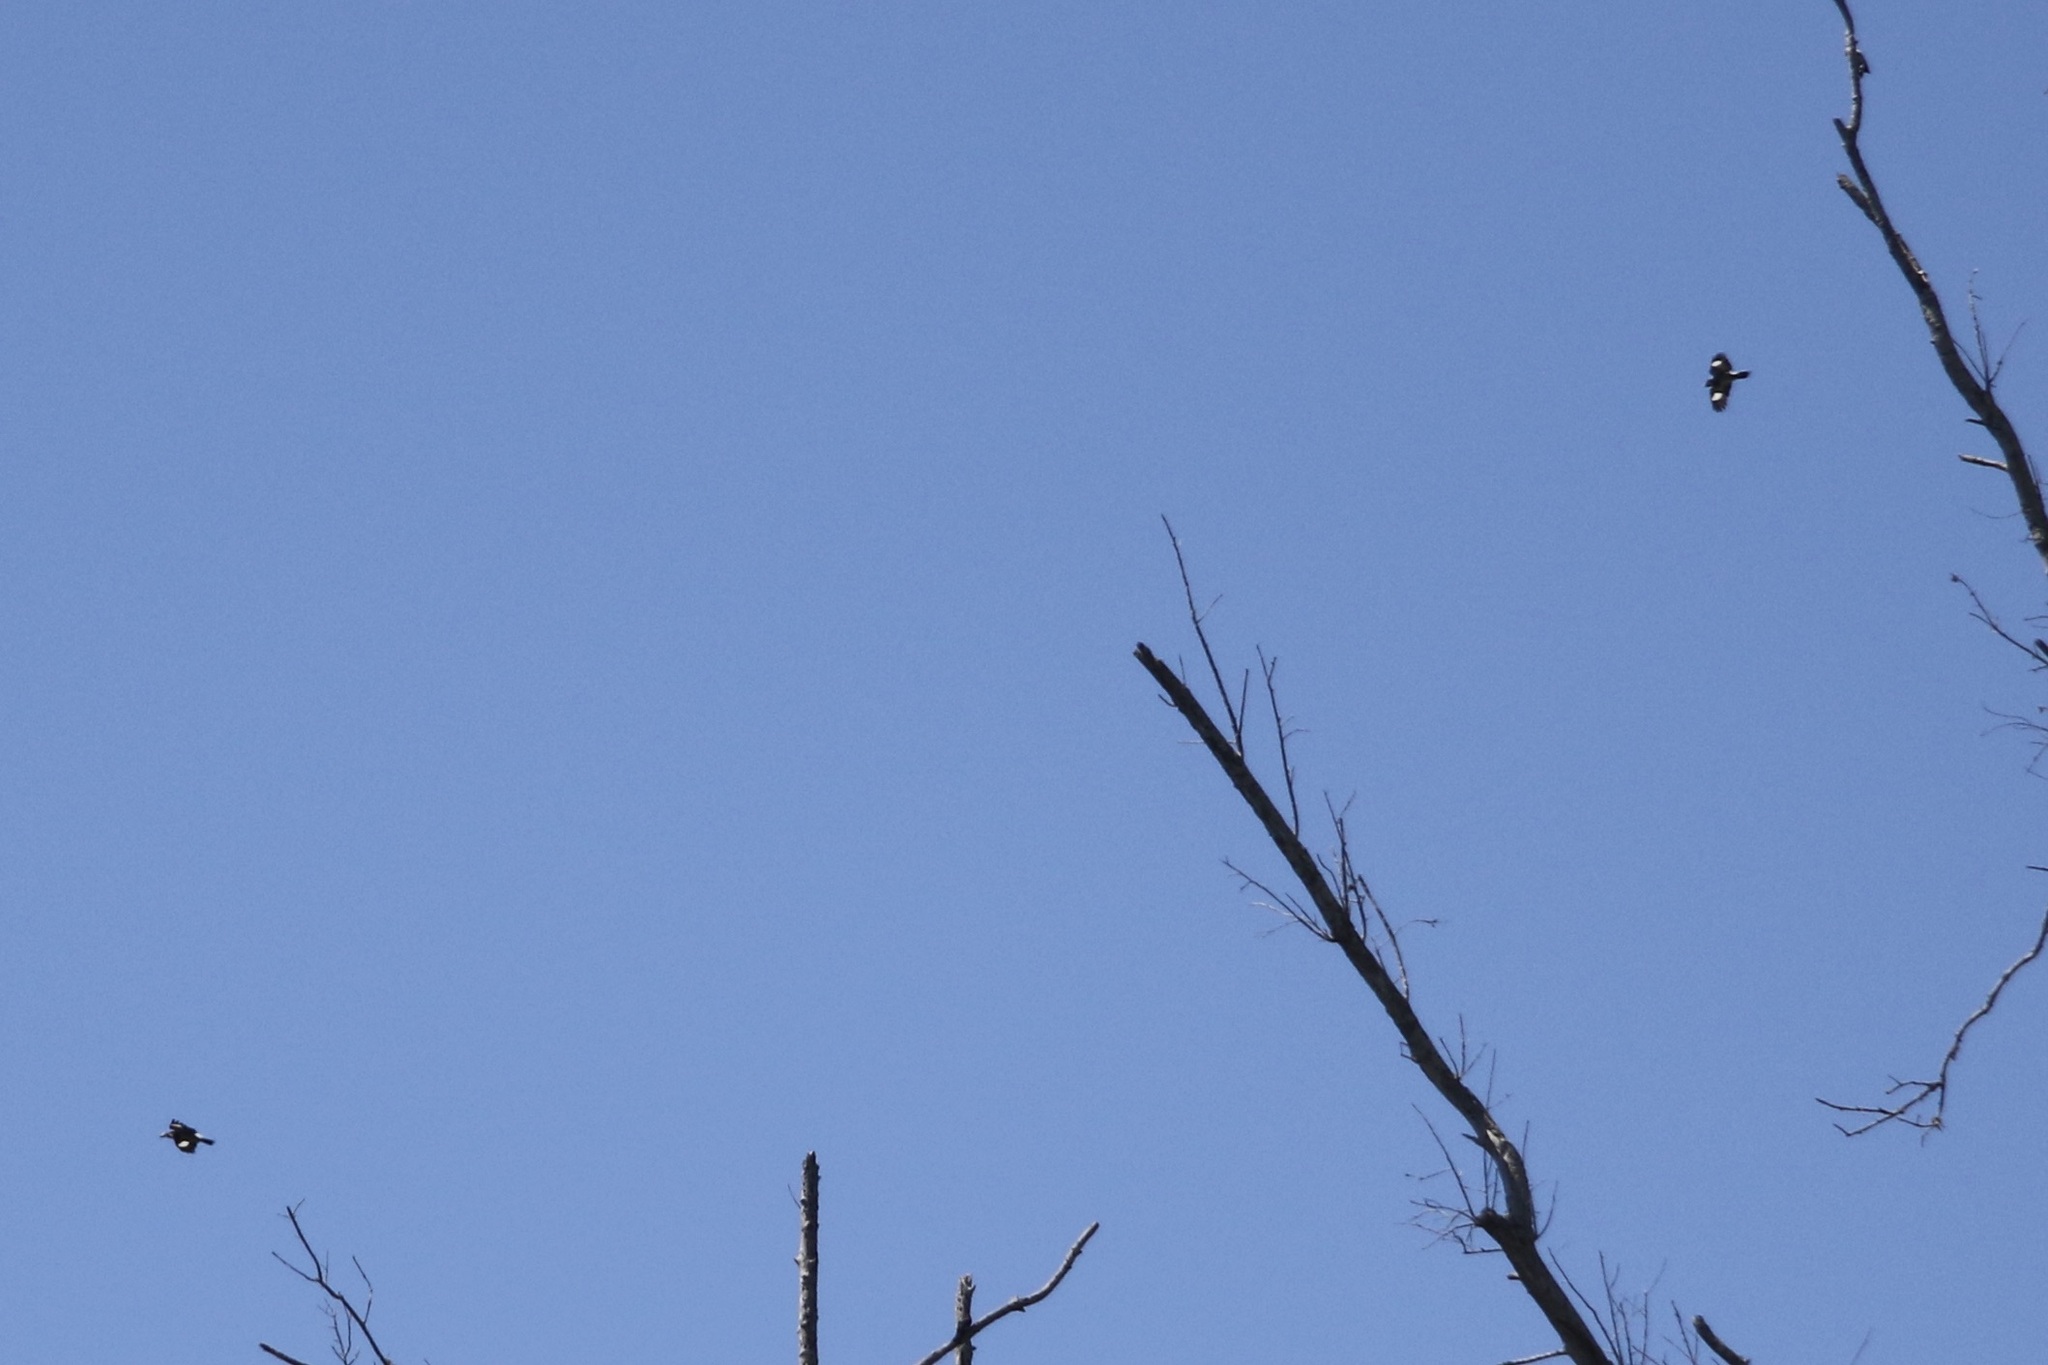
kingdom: Animalia
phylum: Chordata
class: Aves
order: Piciformes
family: Picidae
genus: Melanerpes
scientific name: Melanerpes formicivorus
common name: Acorn woodpecker
